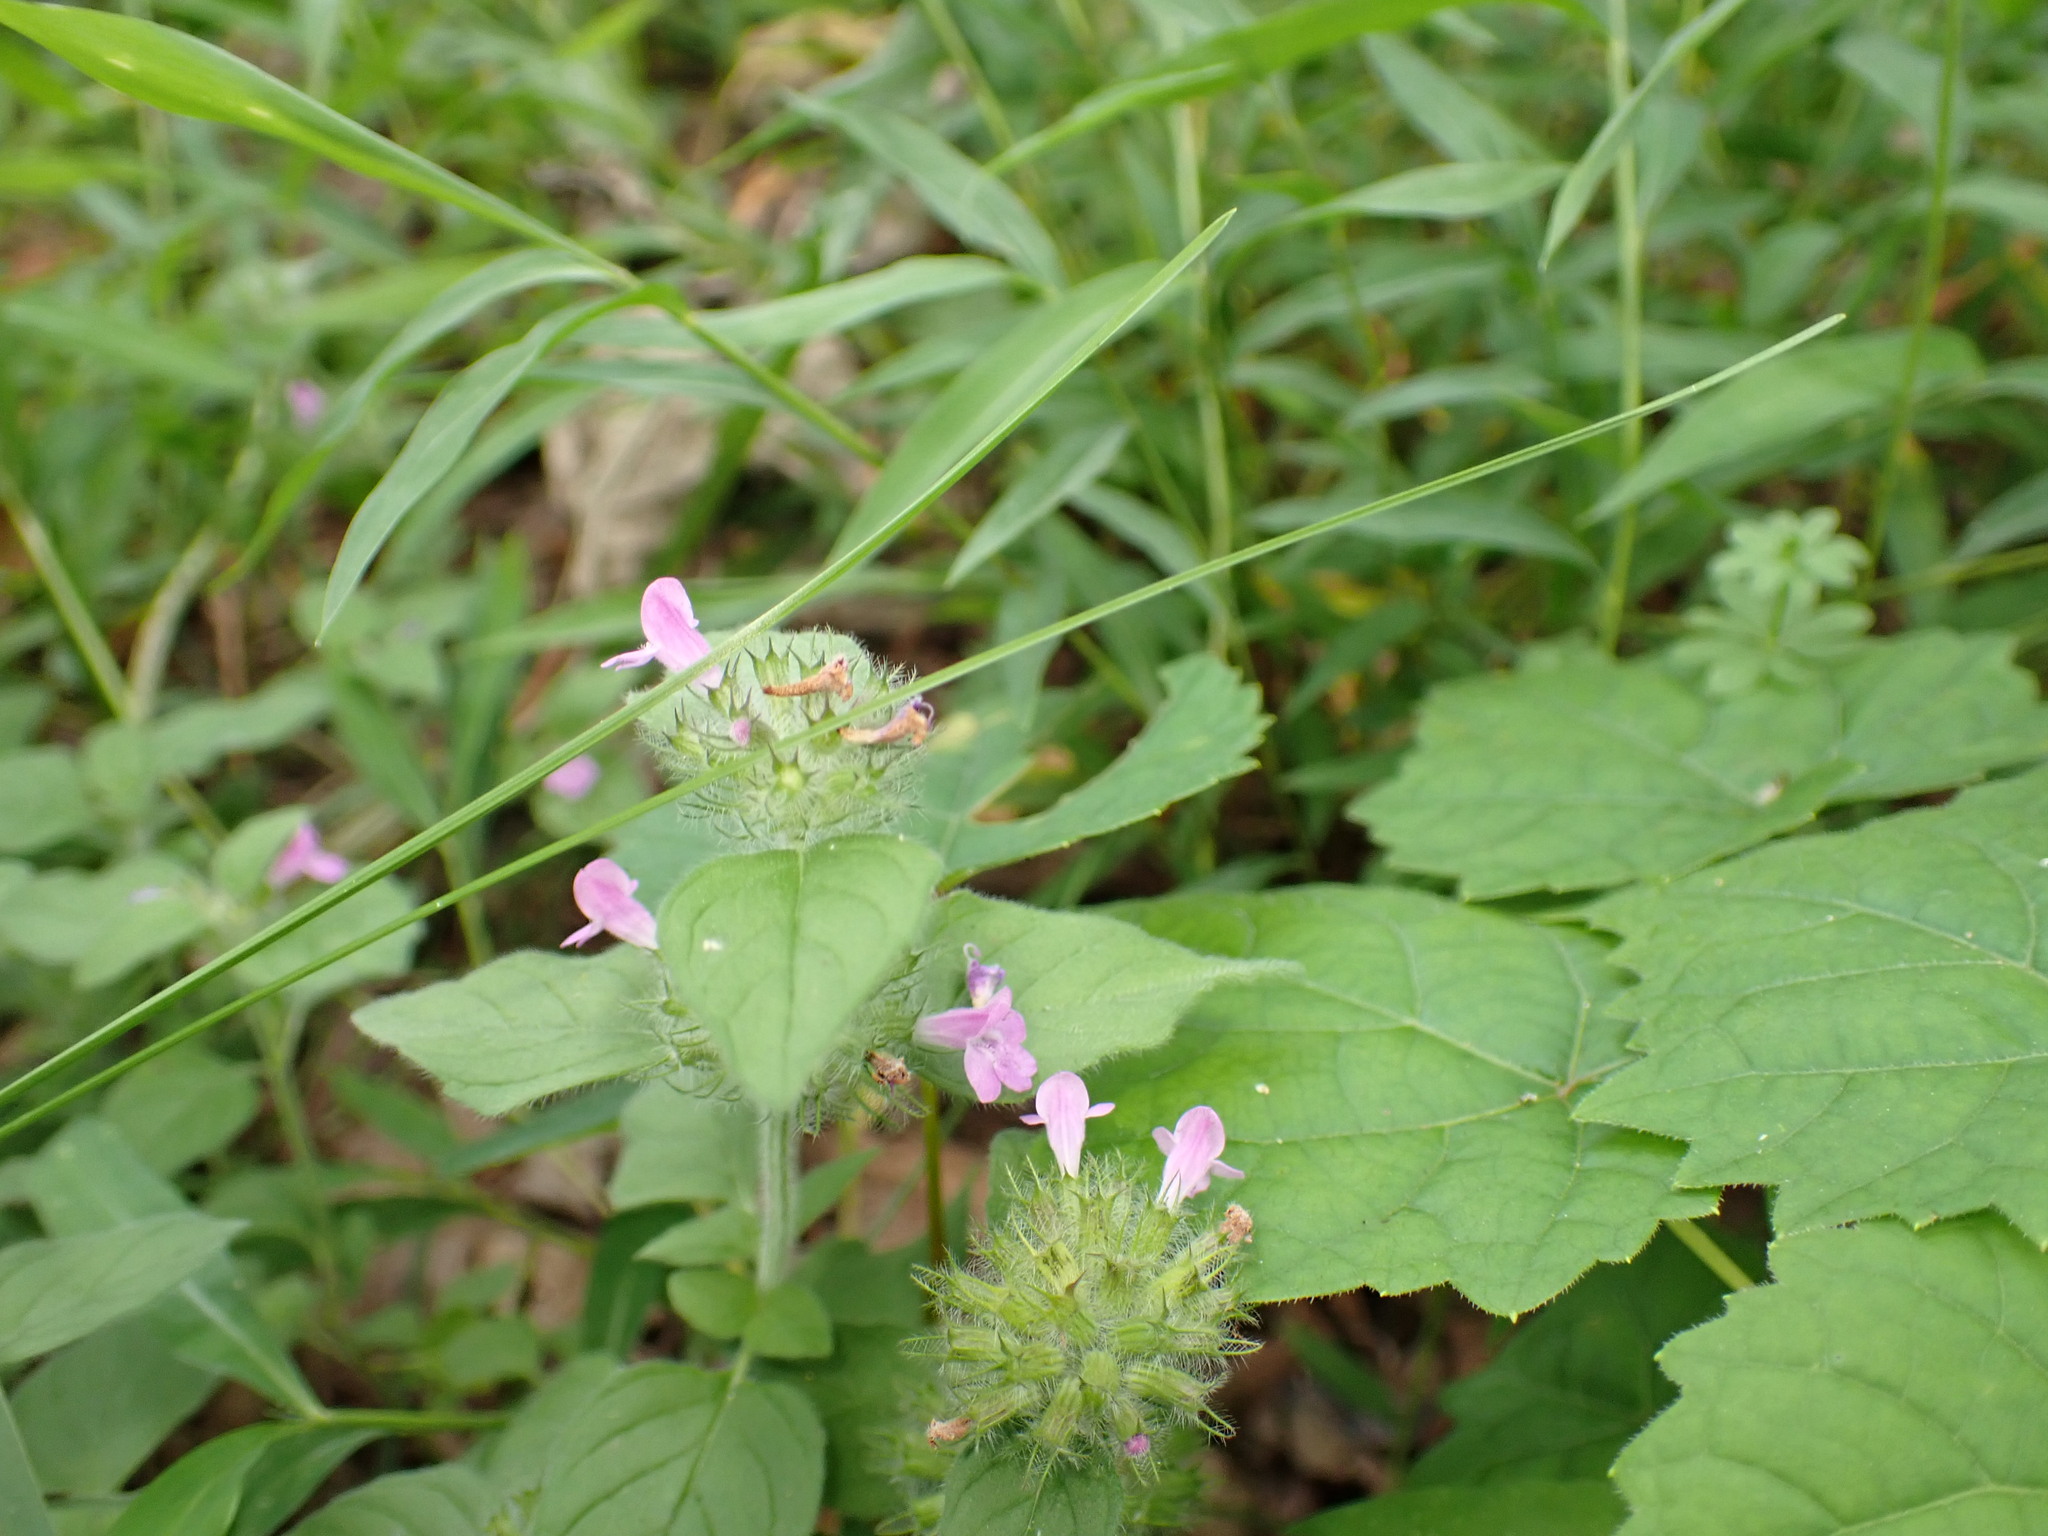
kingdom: Plantae
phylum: Tracheophyta
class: Magnoliopsida
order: Lamiales
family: Lamiaceae
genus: Clinopodium
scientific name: Clinopodium vulgare
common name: Wild basil
